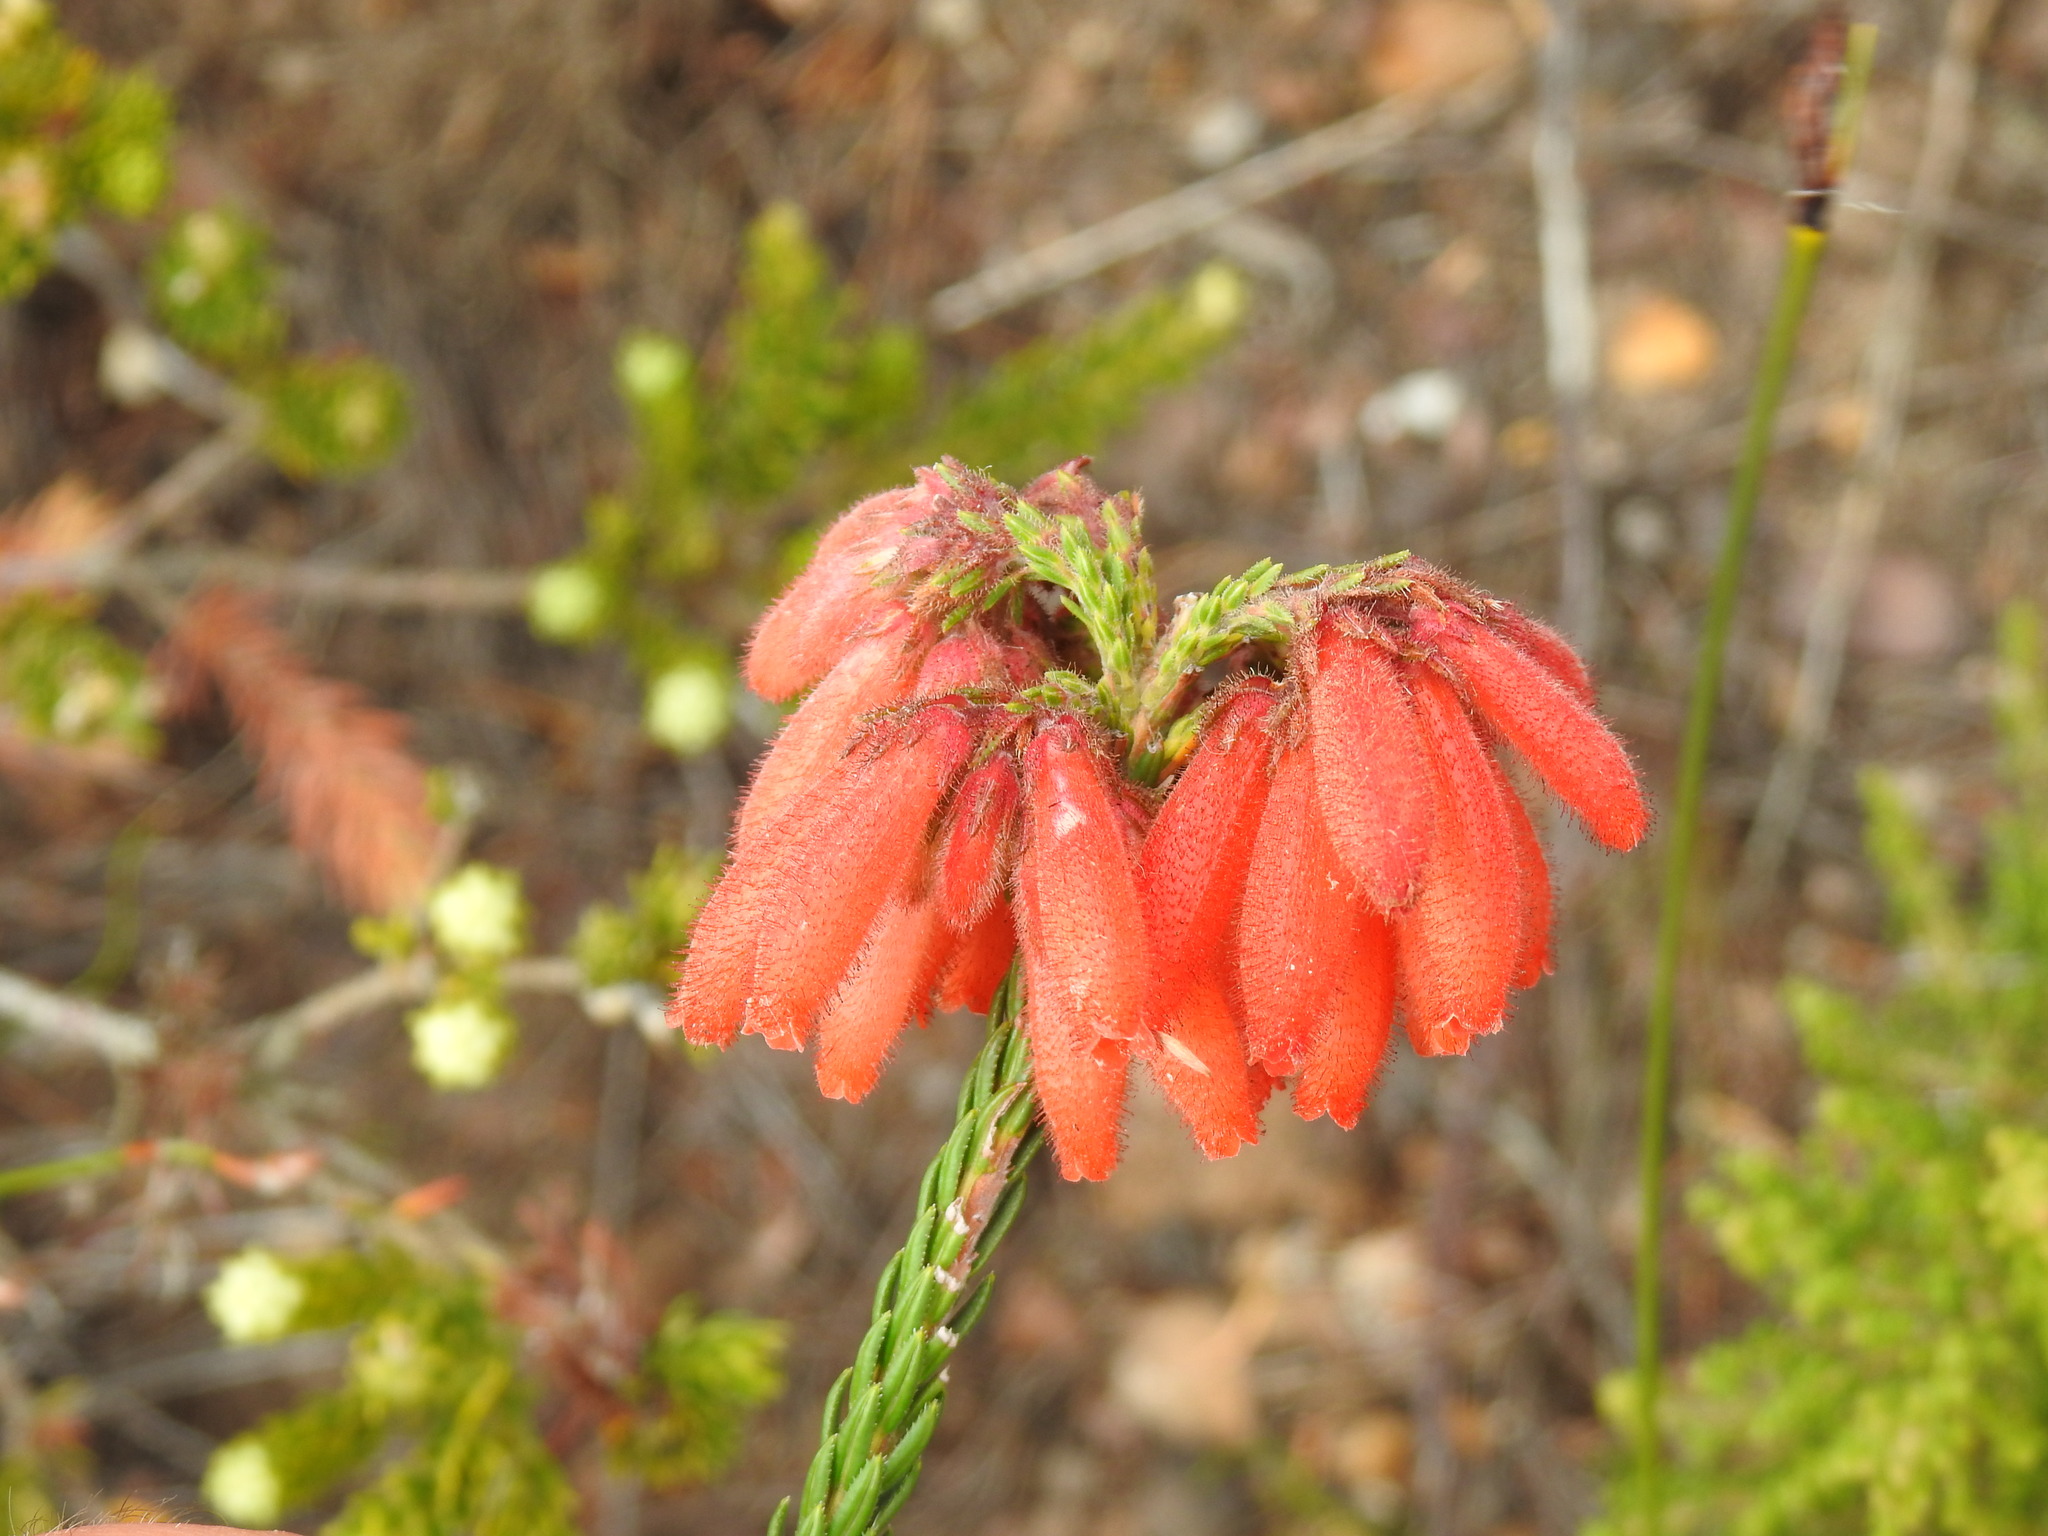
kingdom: Plantae
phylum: Tracheophyta
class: Magnoliopsida
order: Ericales
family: Ericaceae
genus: Erica
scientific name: Erica cerinthoides
